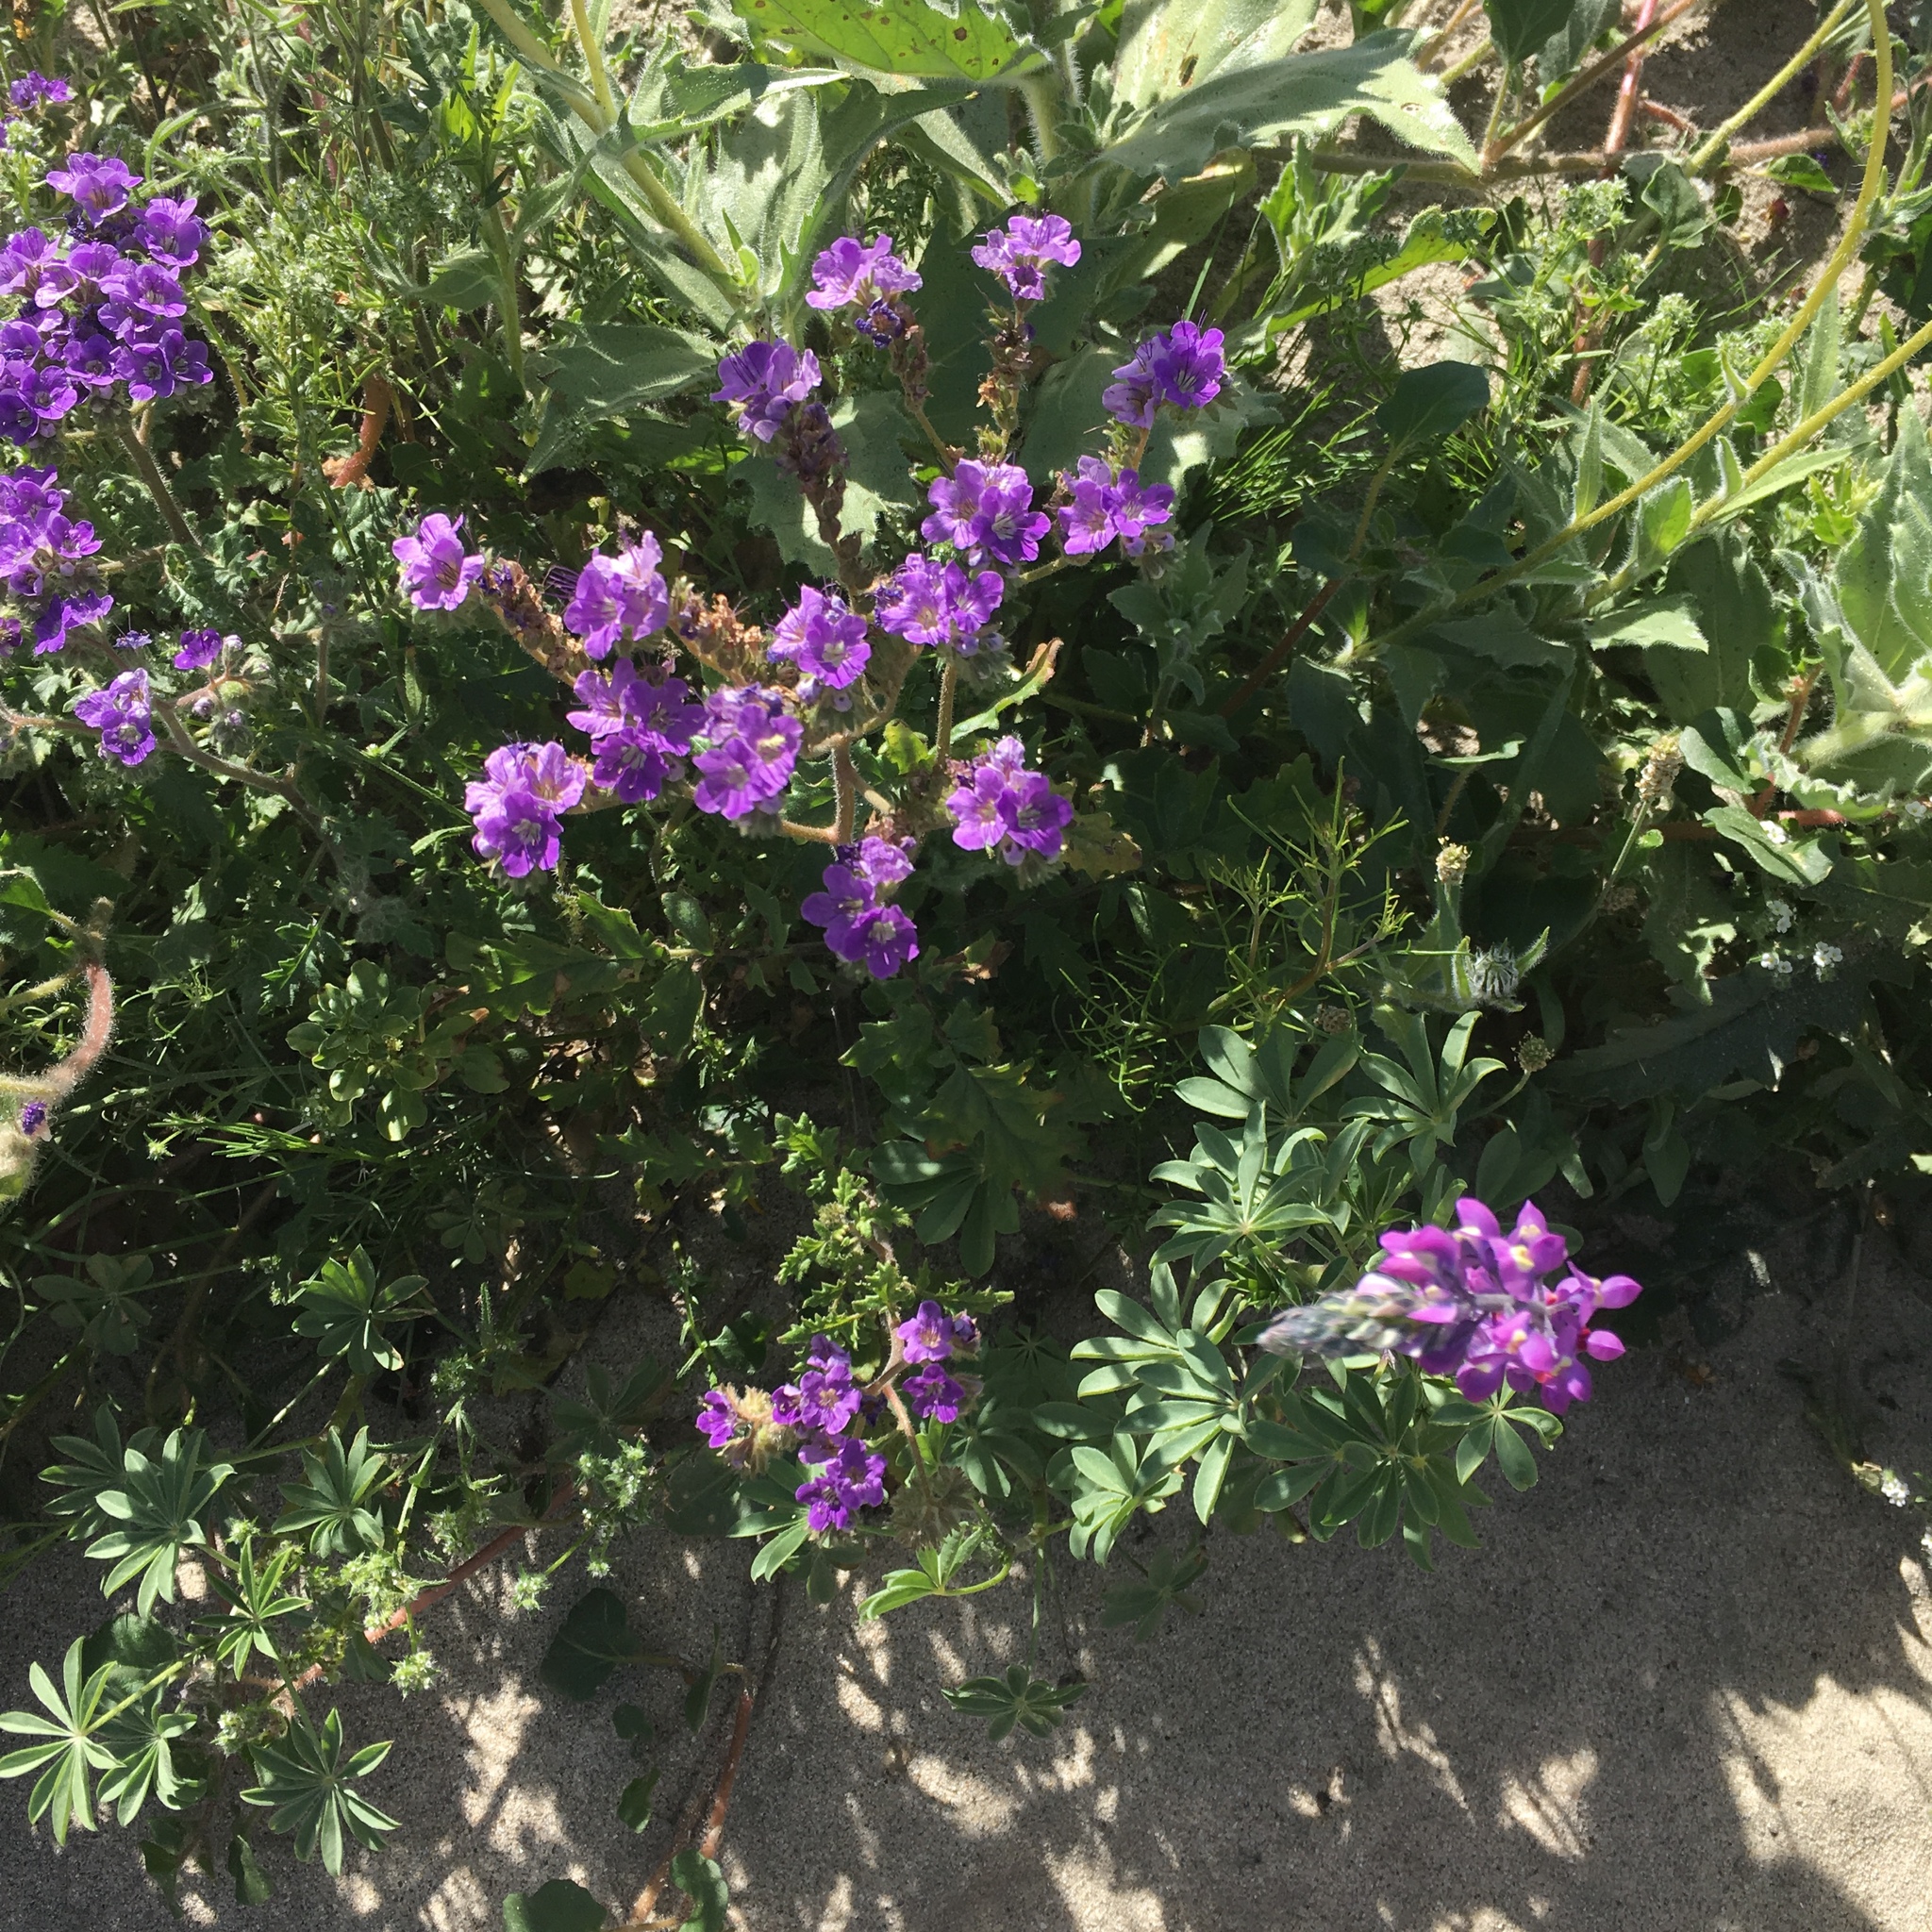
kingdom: Plantae
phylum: Tracheophyta
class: Magnoliopsida
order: Boraginales
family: Hydrophyllaceae
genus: Phacelia
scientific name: Phacelia crenulata
